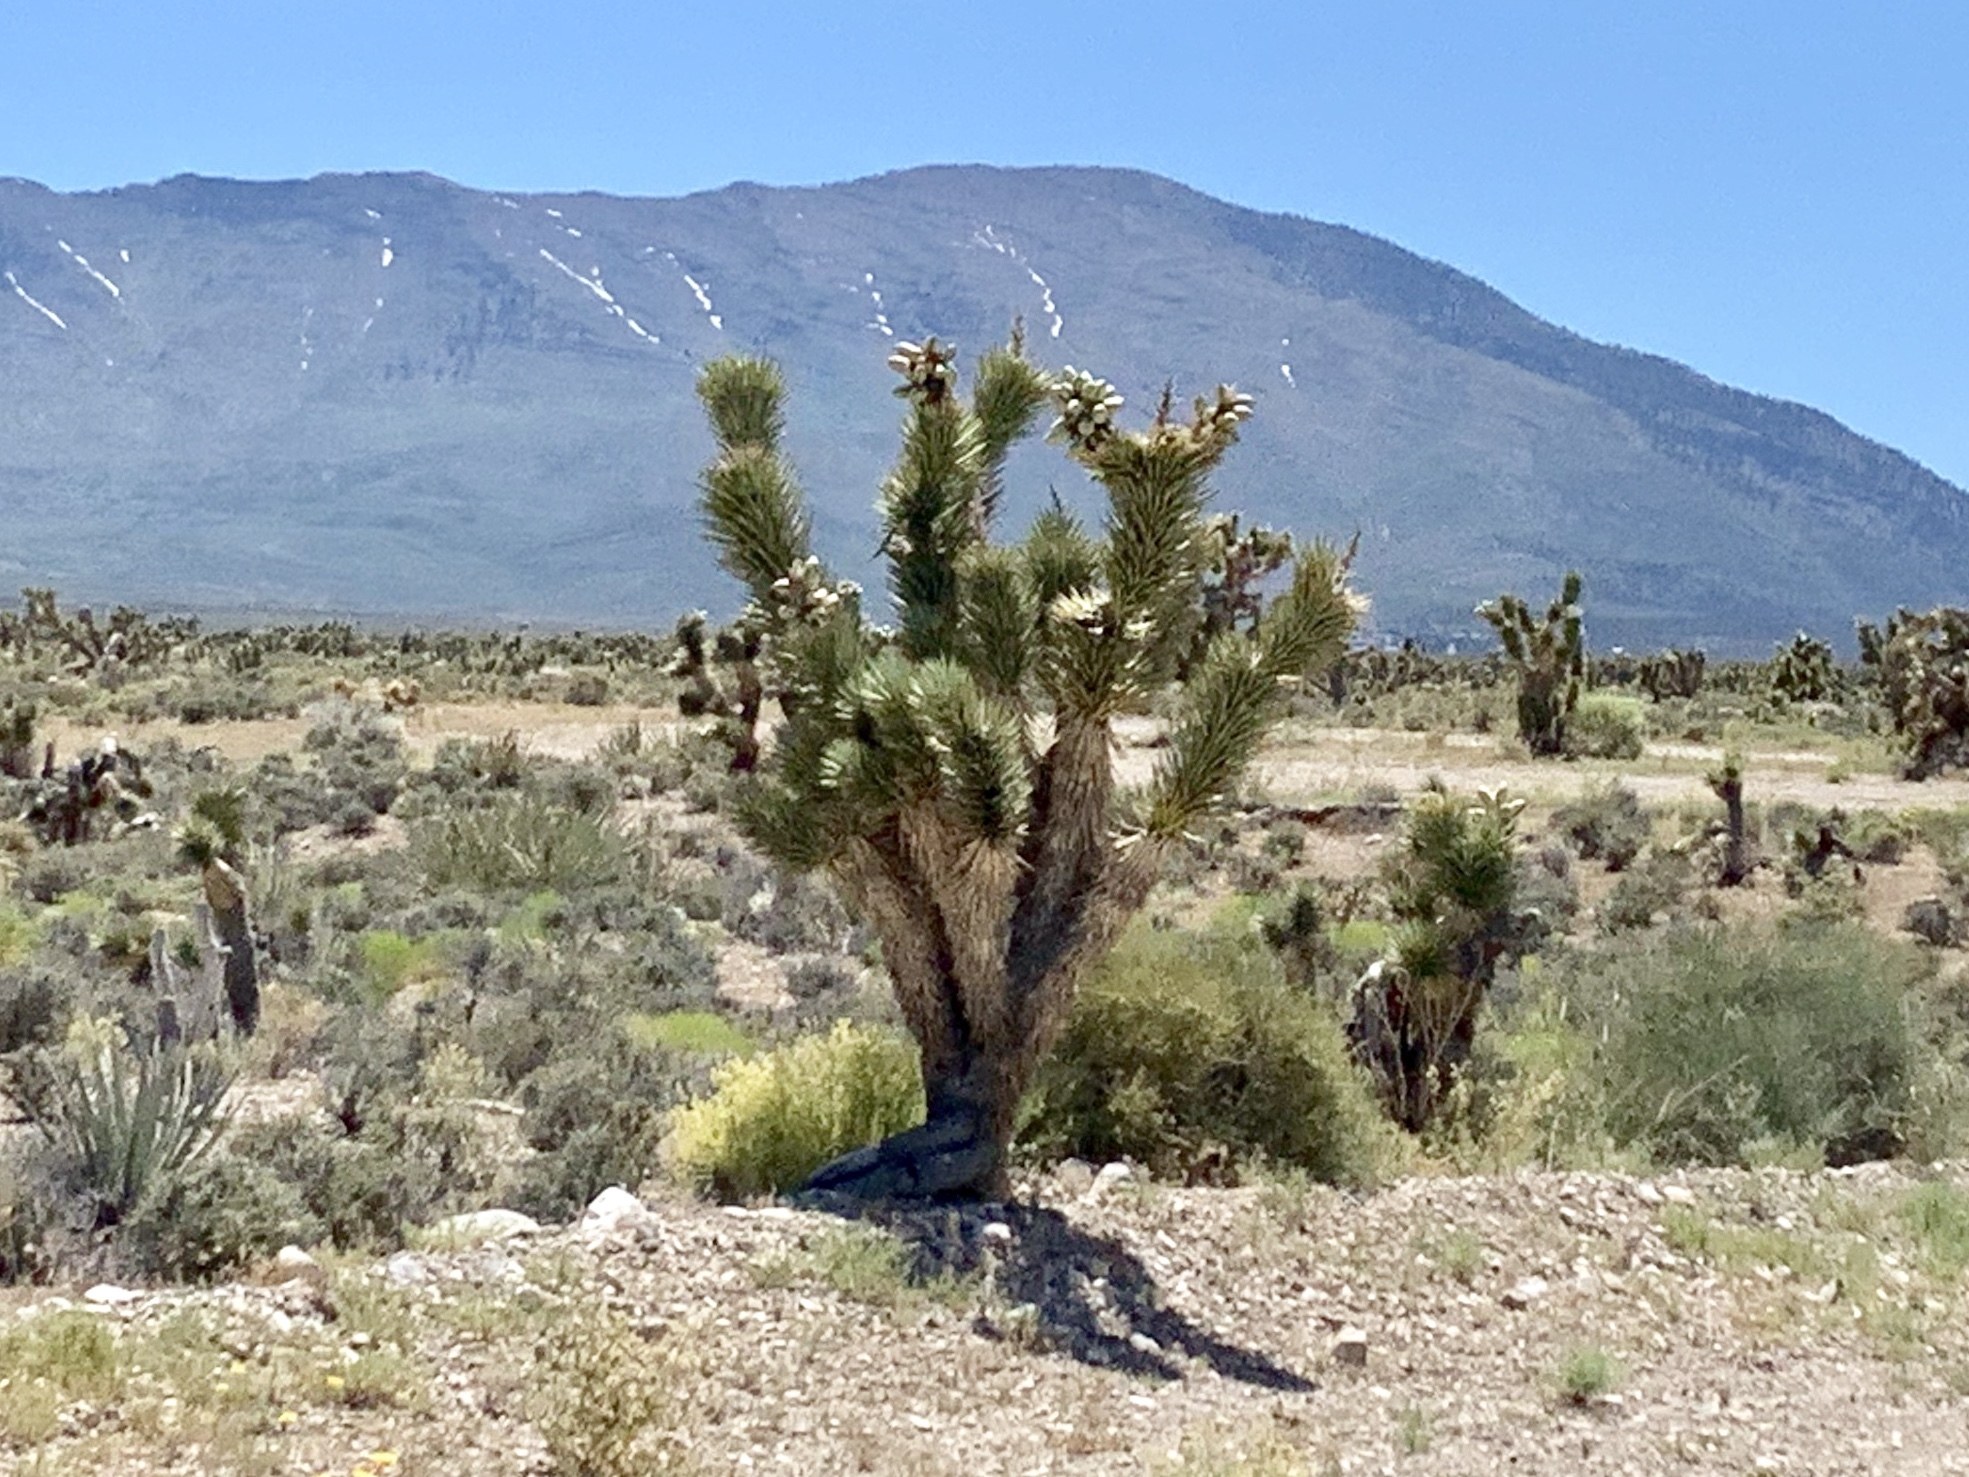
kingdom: Plantae
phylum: Tracheophyta
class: Liliopsida
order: Asparagales
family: Asparagaceae
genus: Yucca
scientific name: Yucca brevifolia
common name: Joshua tree
